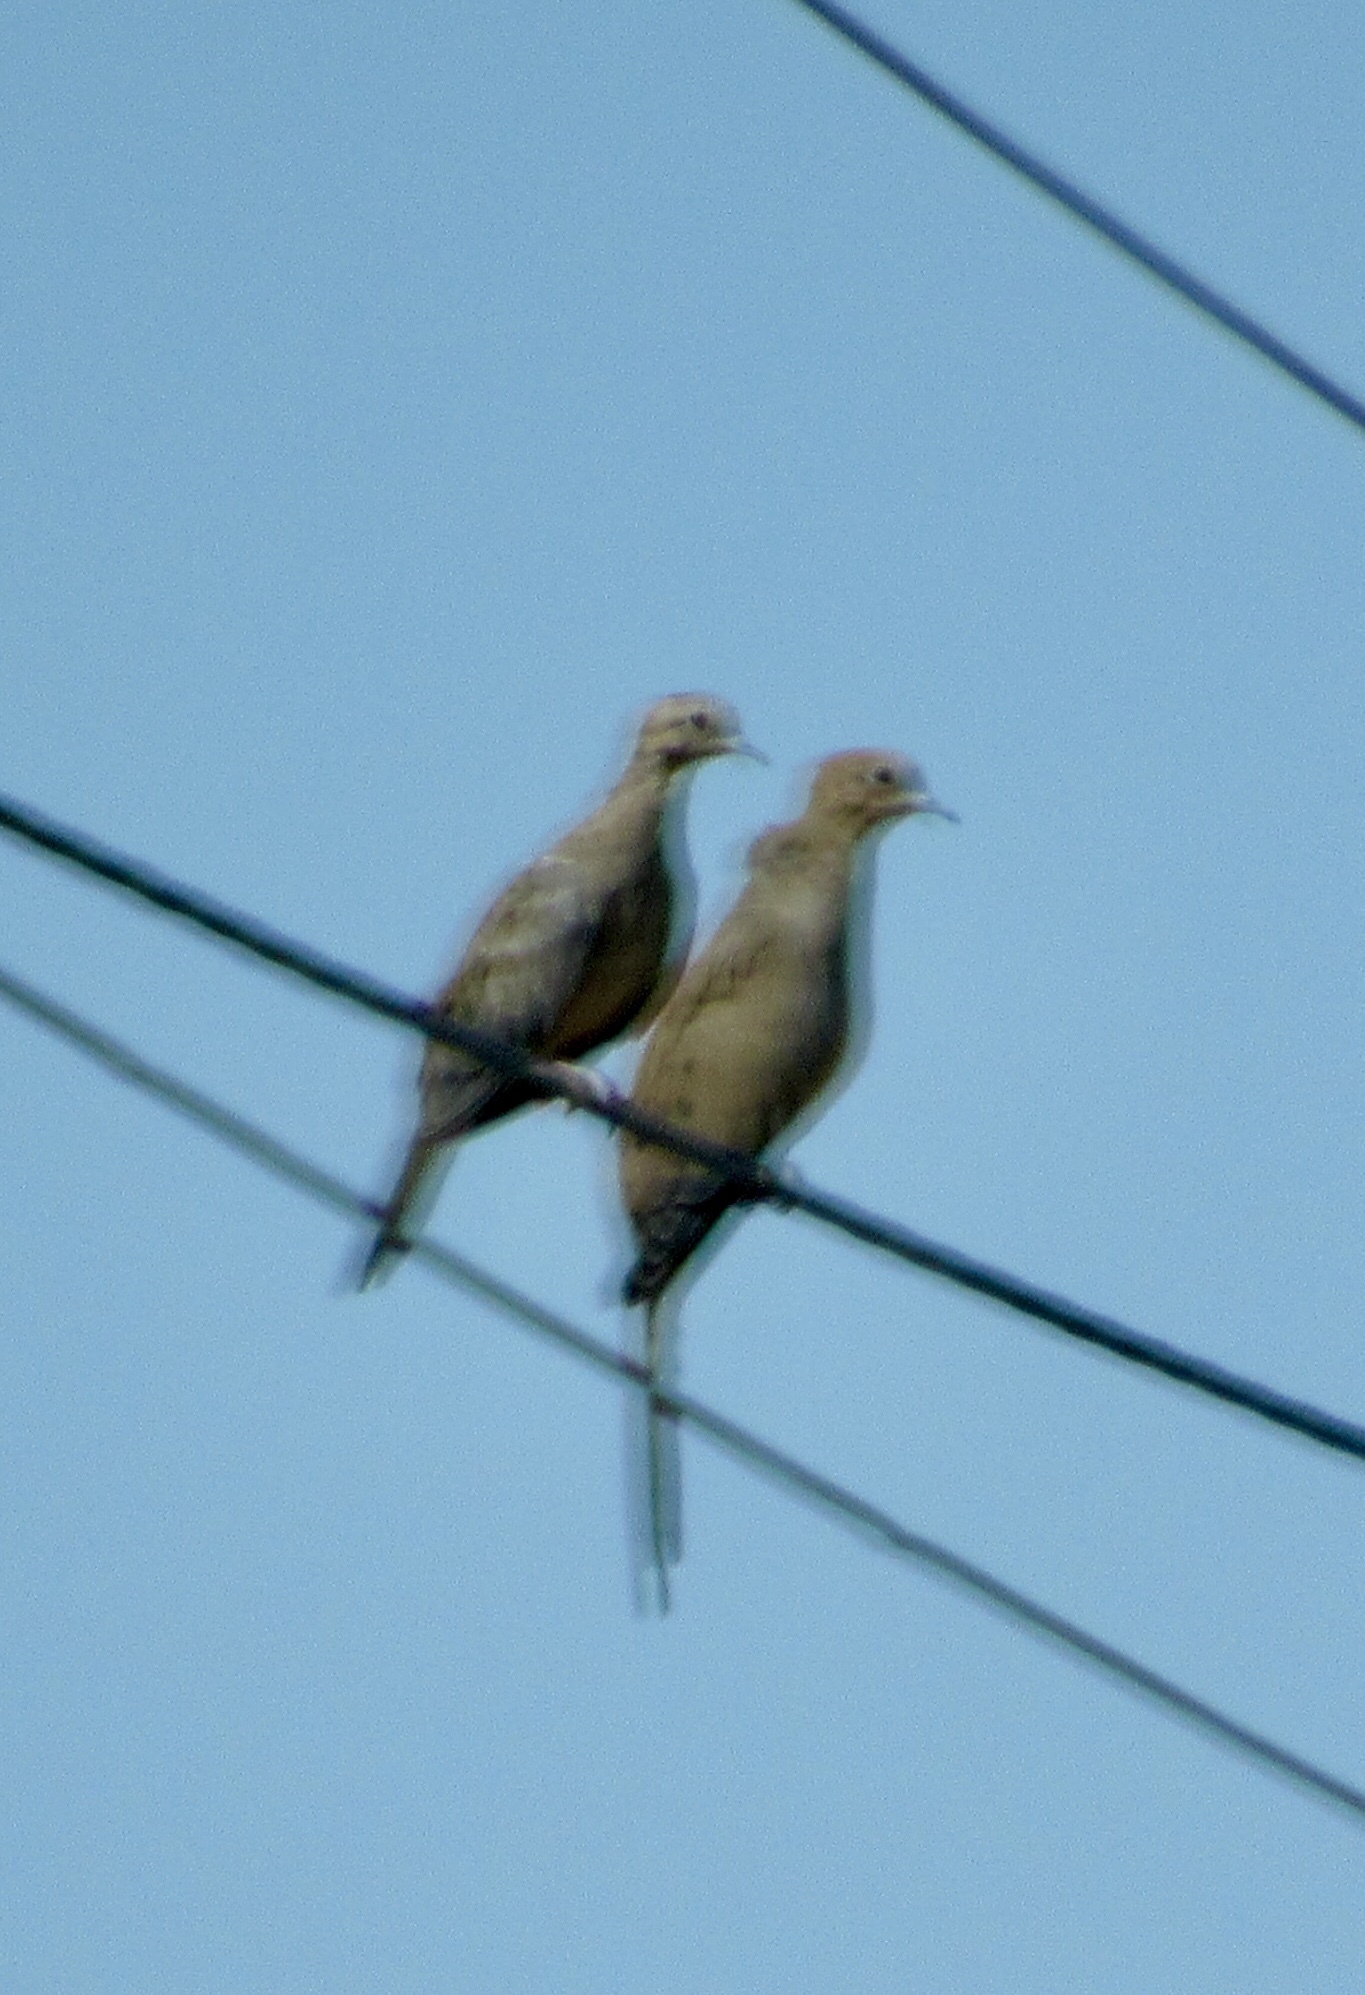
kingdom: Animalia
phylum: Chordata
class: Aves
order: Columbiformes
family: Columbidae
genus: Zenaida
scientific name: Zenaida macroura
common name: Mourning dove
